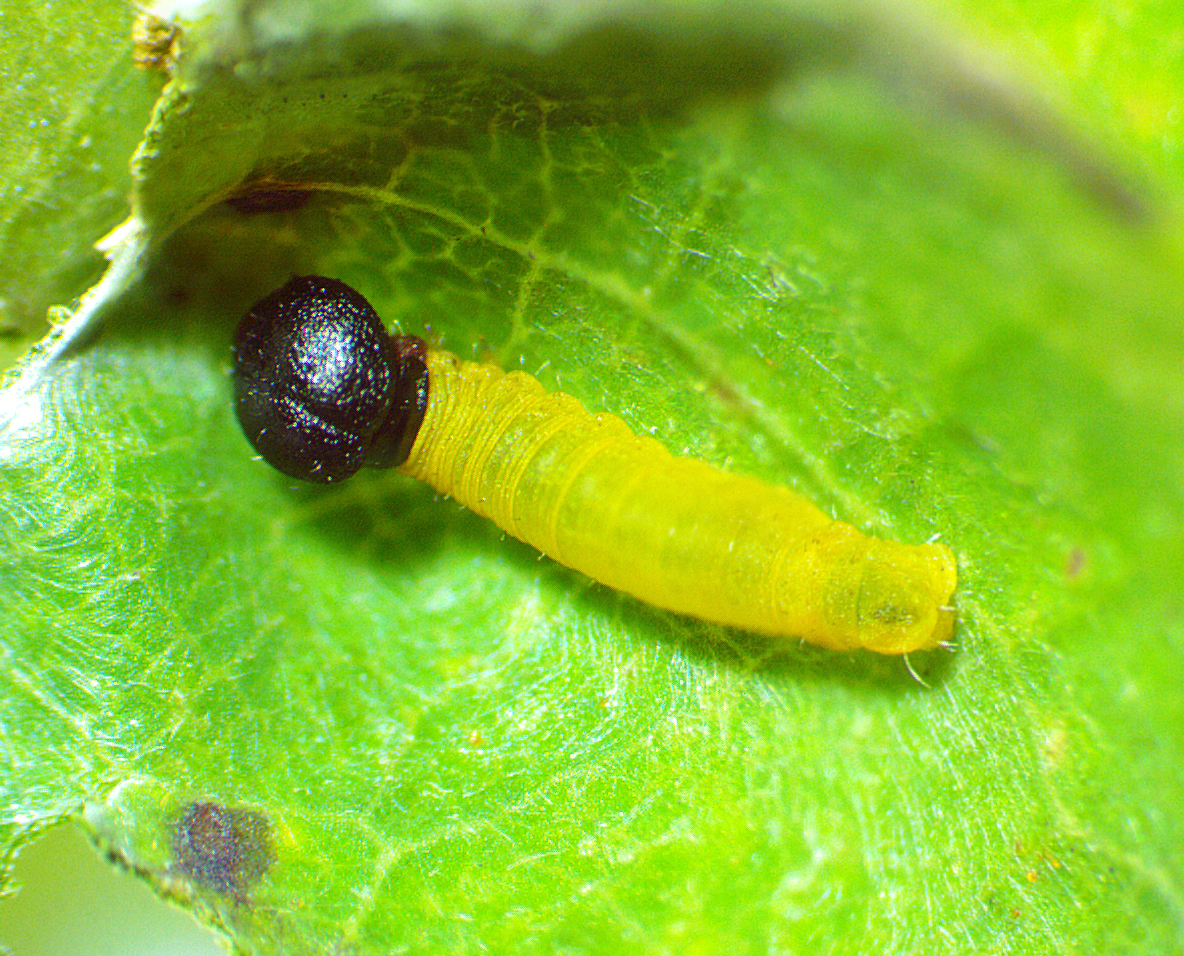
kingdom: Animalia
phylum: Arthropoda
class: Insecta
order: Lepidoptera
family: Hesperiidae
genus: Epargyreus
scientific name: Epargyreus clarus
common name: Silver-spotted skipper
